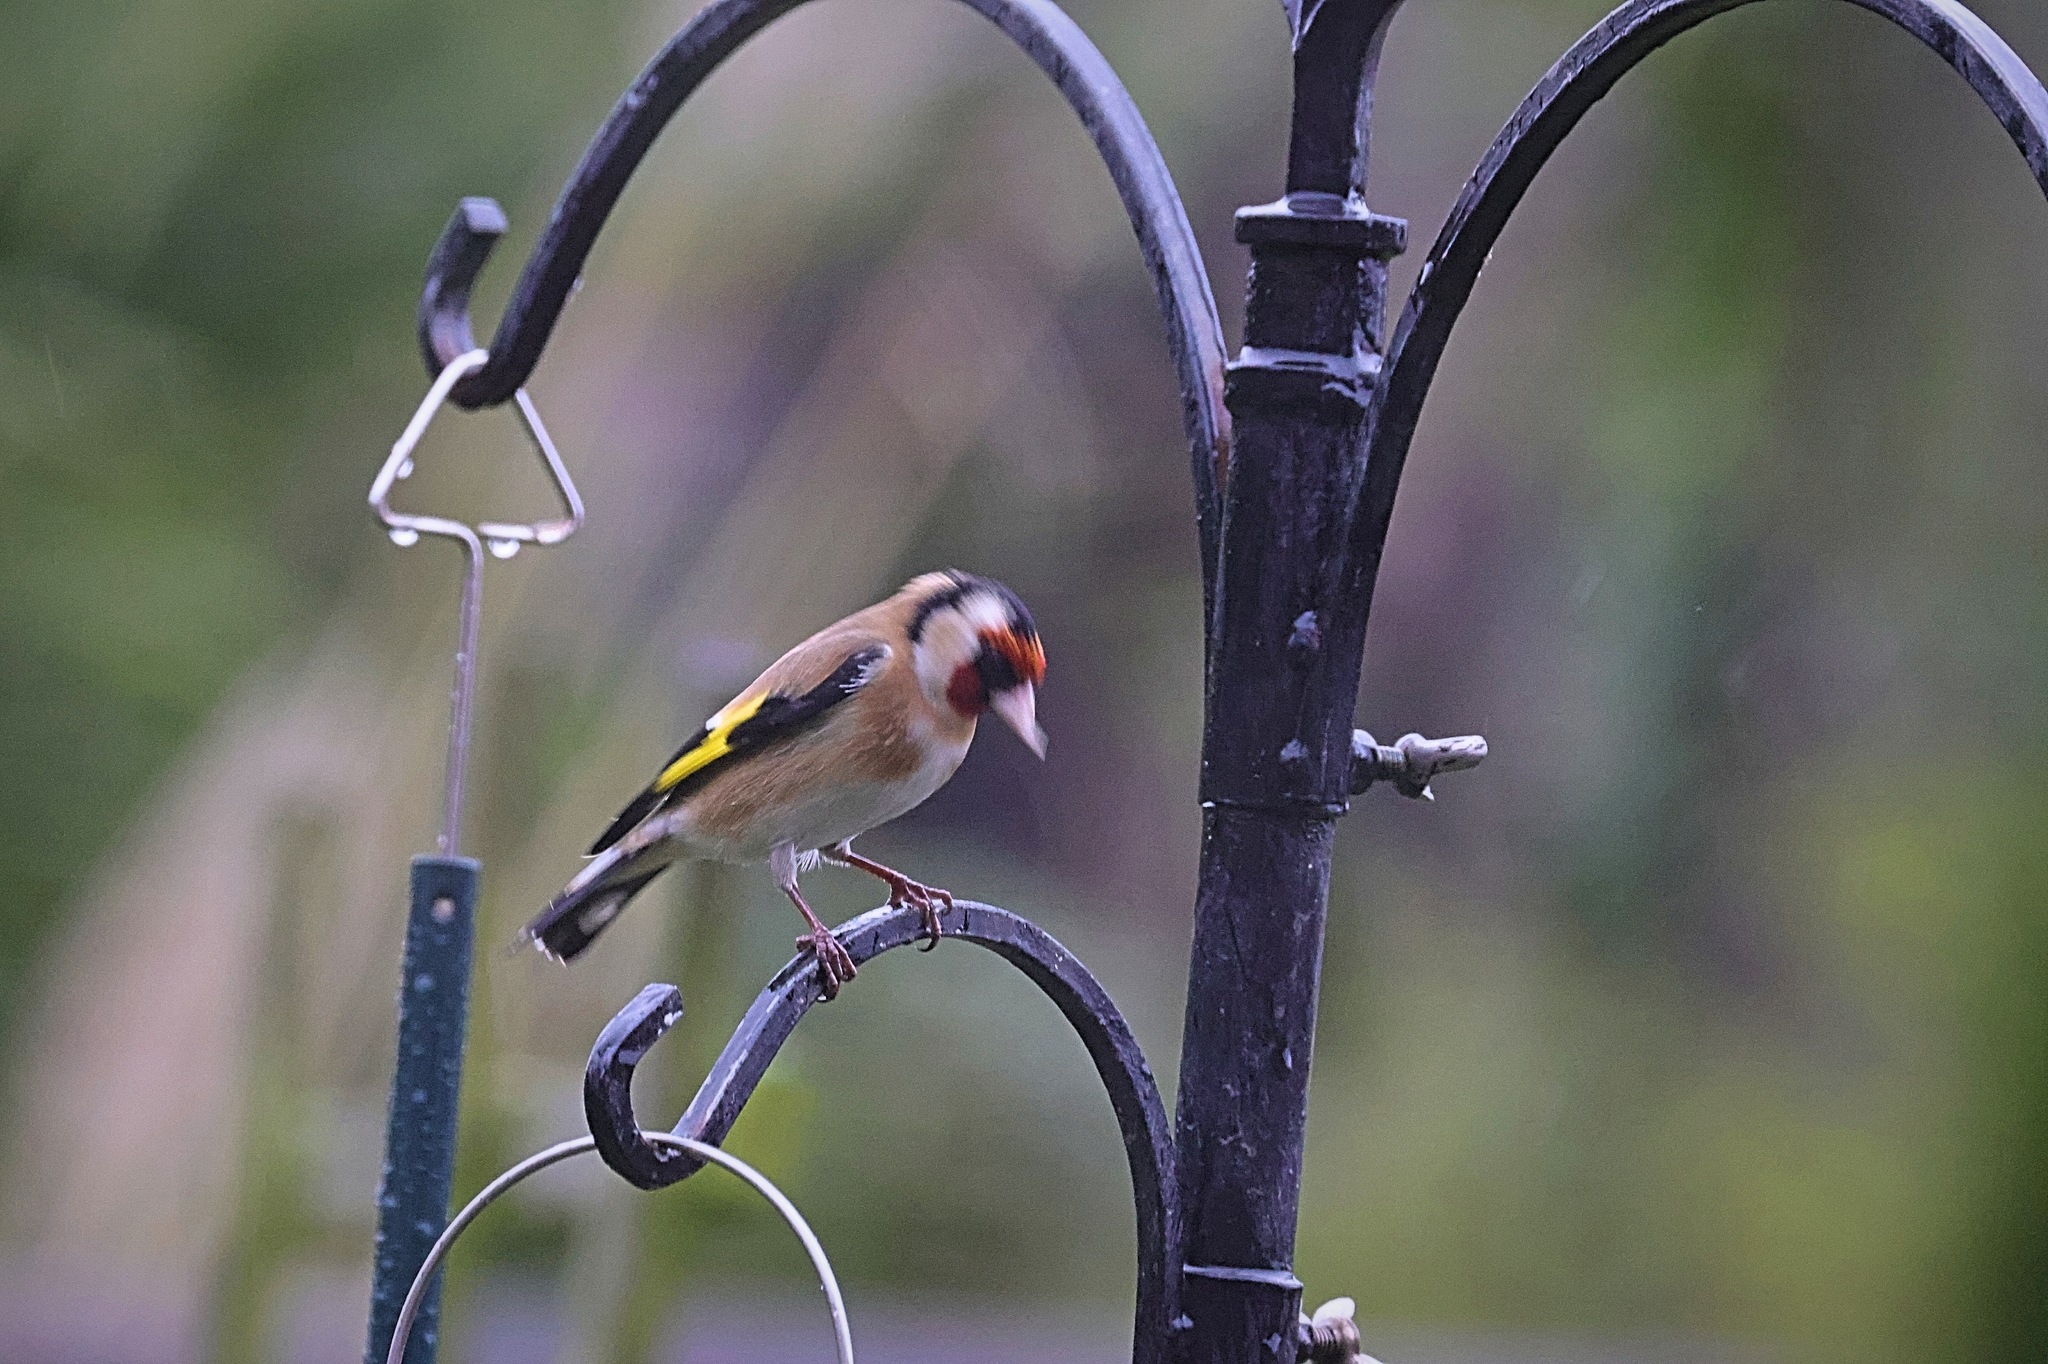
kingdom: Animalia
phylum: Chordata
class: Aves
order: Passeriformes
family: Fringillidae
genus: Carduelis
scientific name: Carduelis carduelis
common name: European goldfinch
